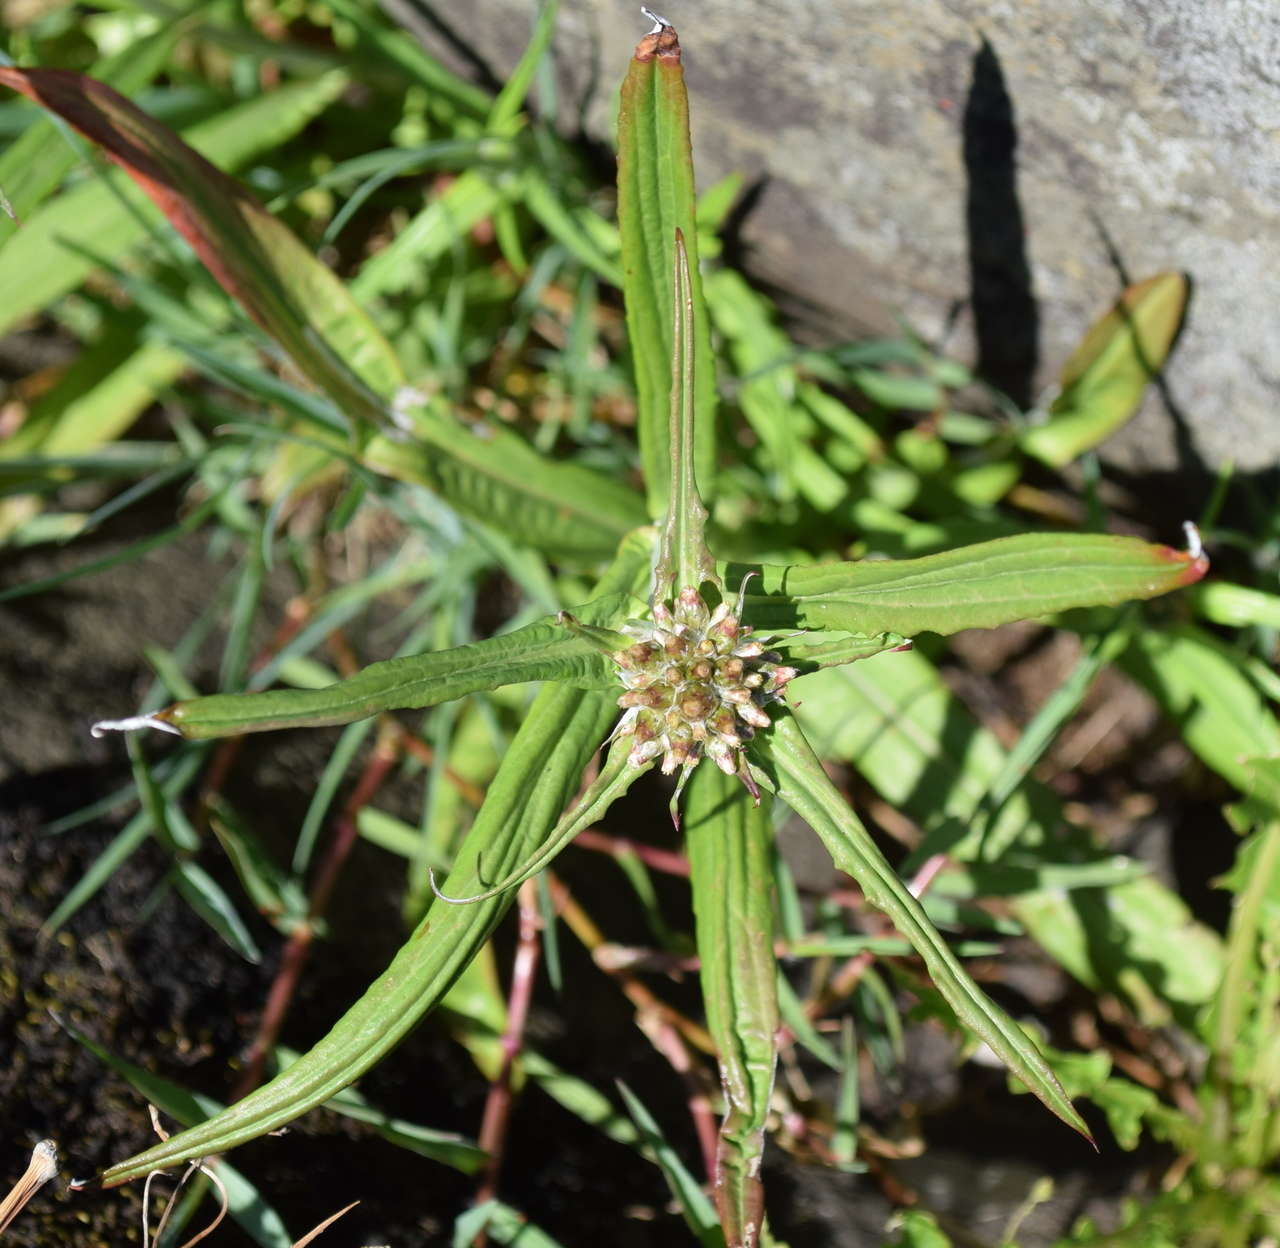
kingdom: Plantae
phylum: Tracheophyta
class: Magnoliopsida
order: Asterales
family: Asteraceae
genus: Euchiton
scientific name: Euchiton involucratus
